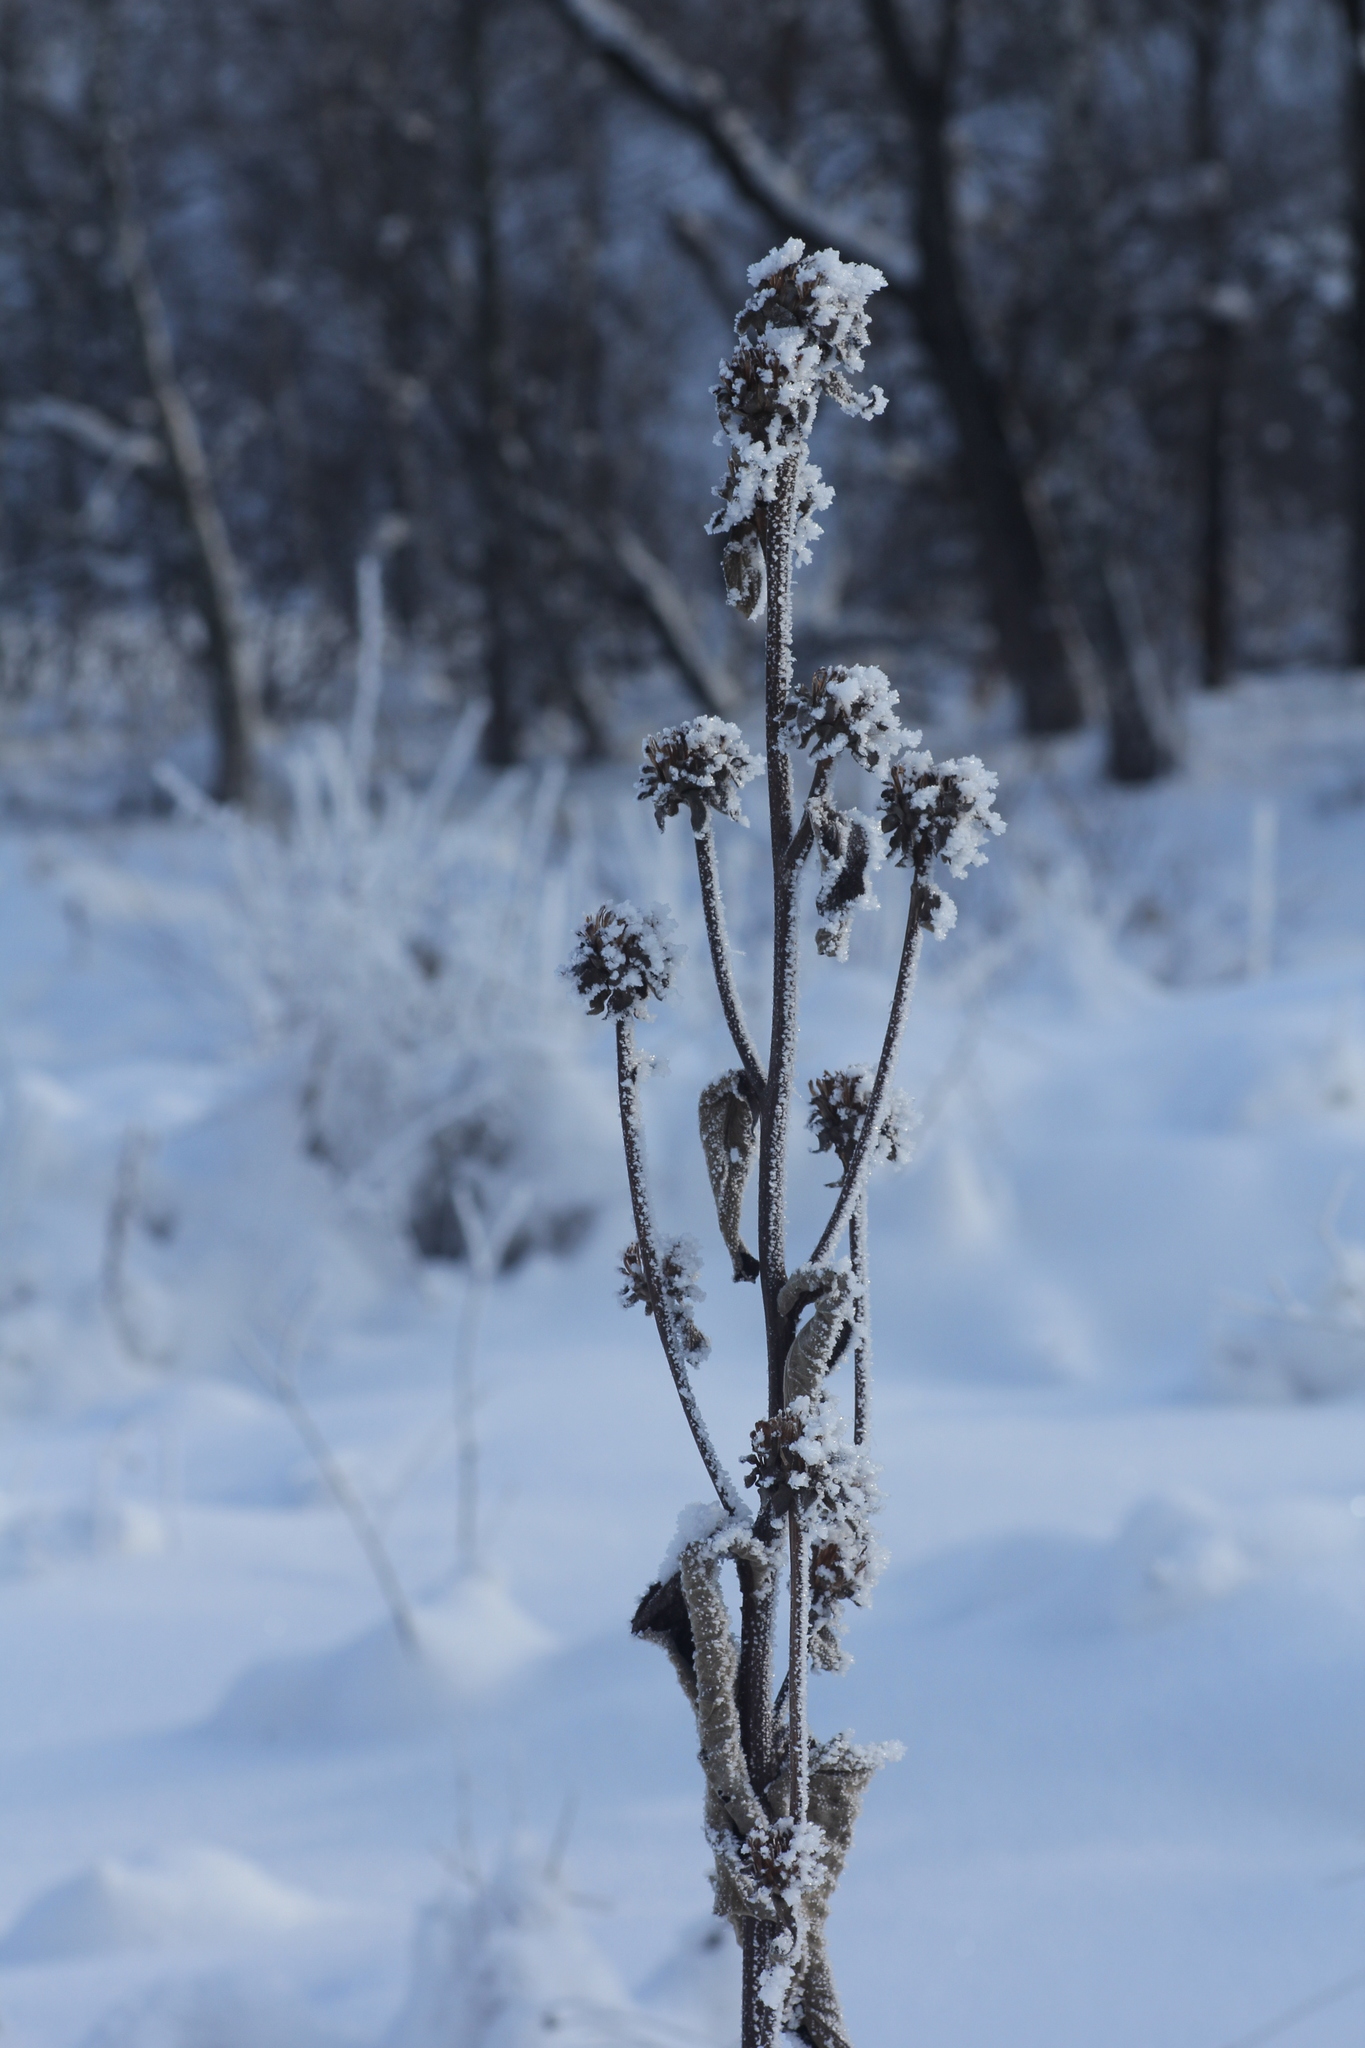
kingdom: Plantae
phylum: Tracheophyta
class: Magnoliopsida
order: Asterales
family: Asteraceae
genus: Inula
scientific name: Inula helenium
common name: Elecampane
